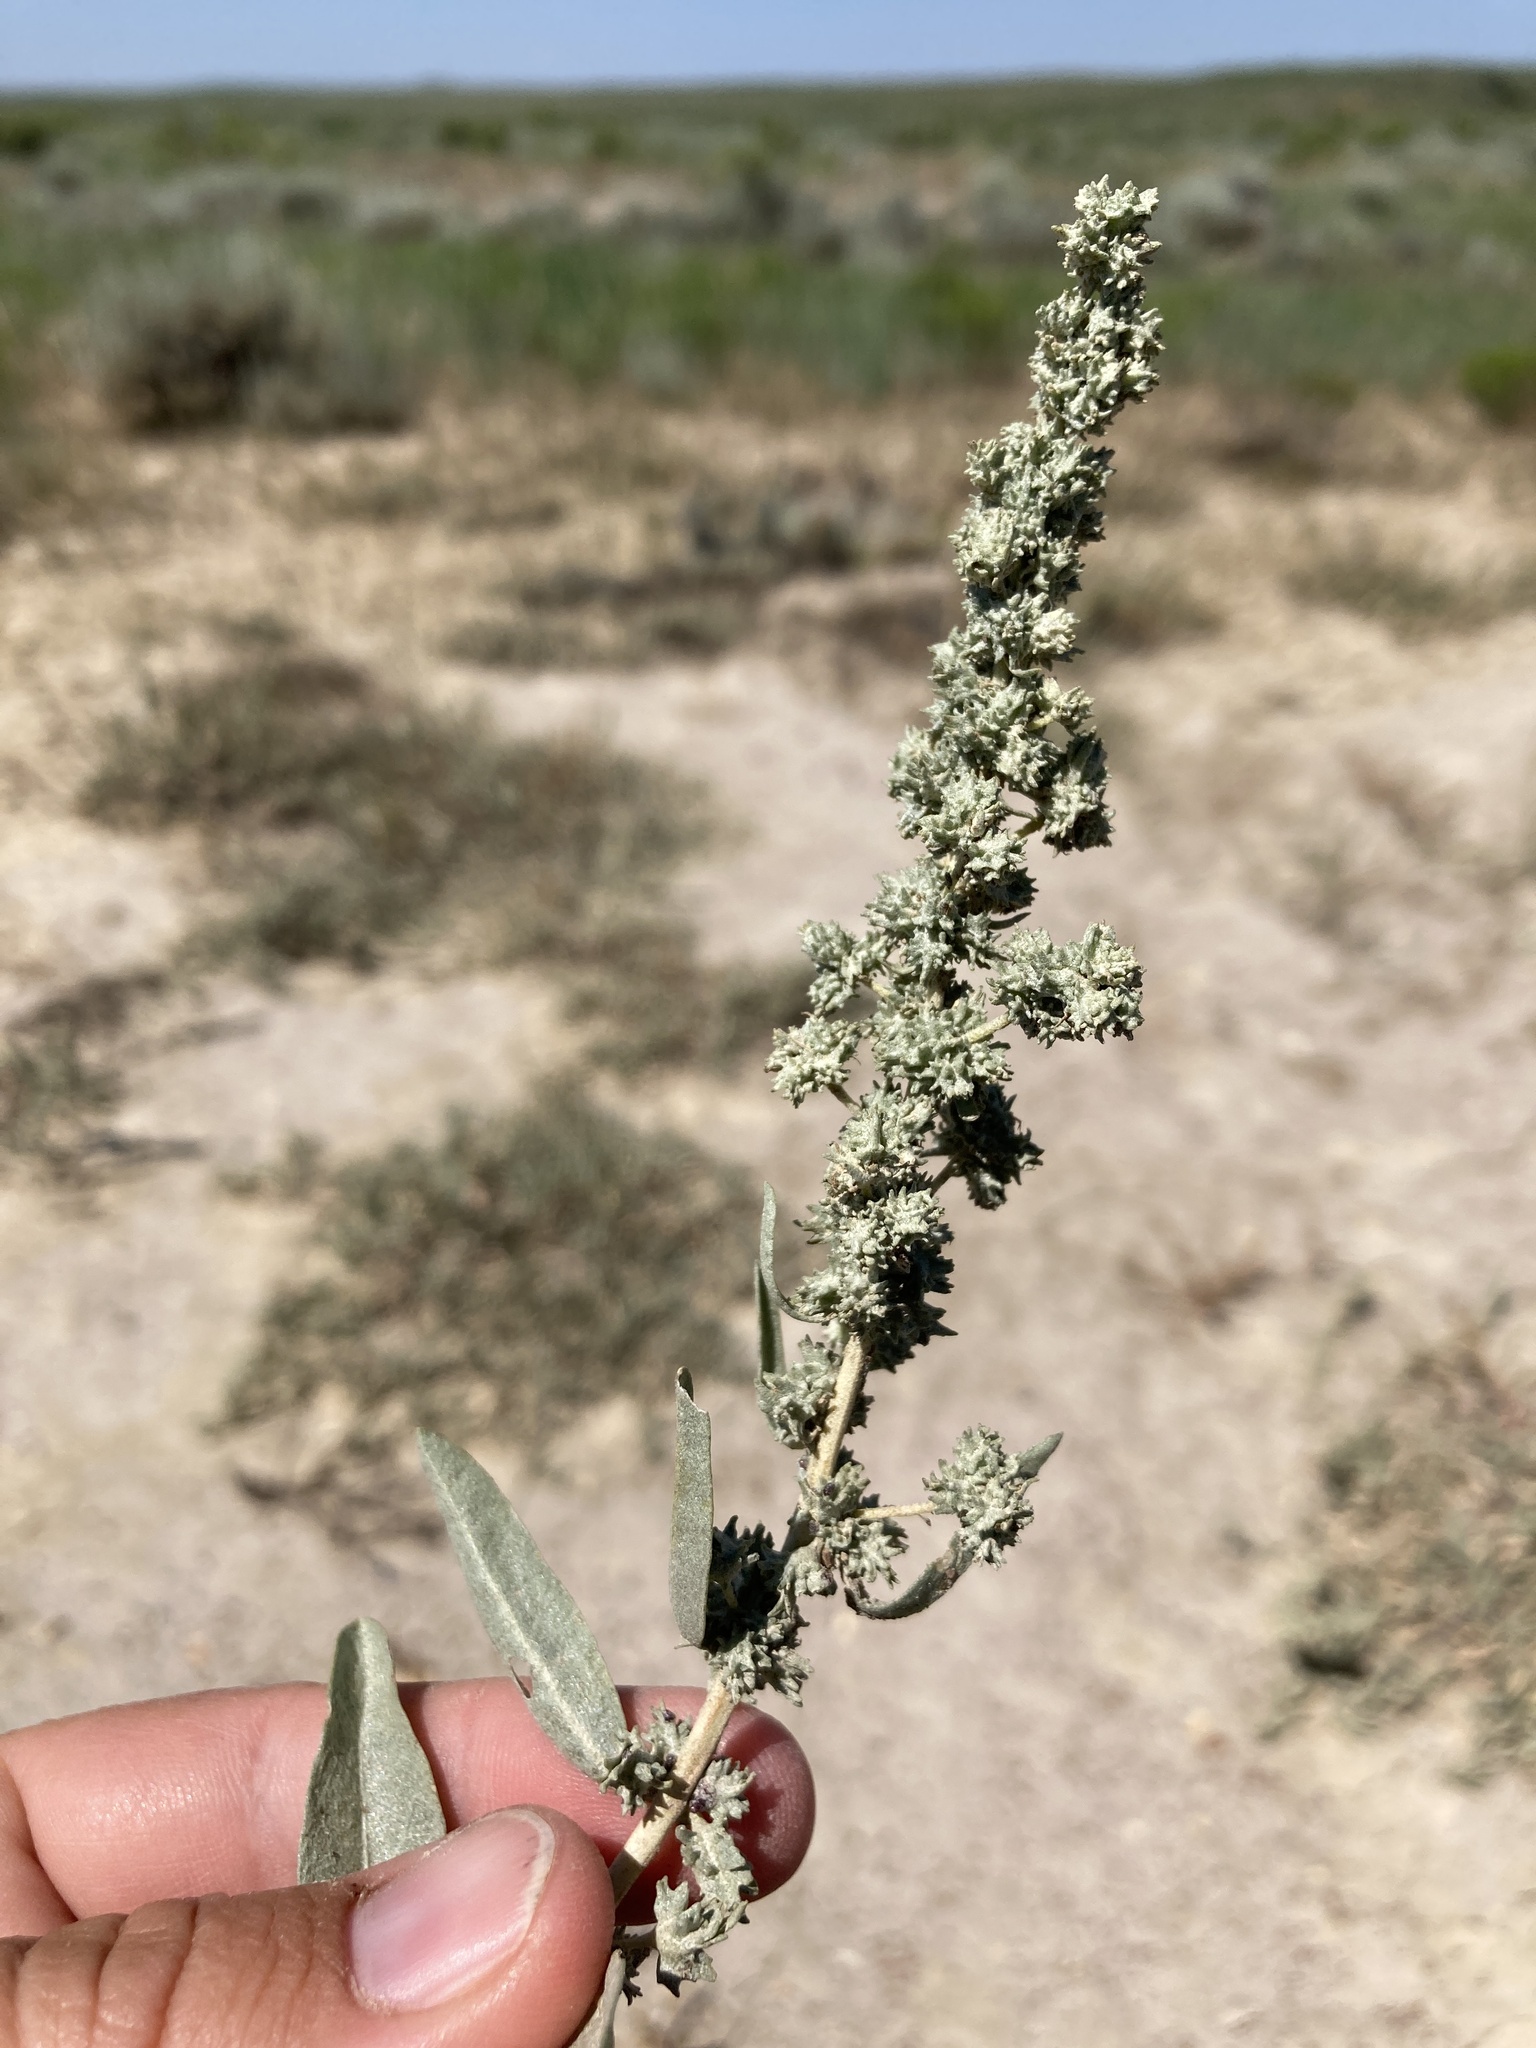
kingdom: Plantae
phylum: Tracheophyta
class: Magnoliopsida
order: Caryophyllales
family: Amaranthaceae
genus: Atriplex
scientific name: Atriplex gardneri
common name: Gardner's orache
